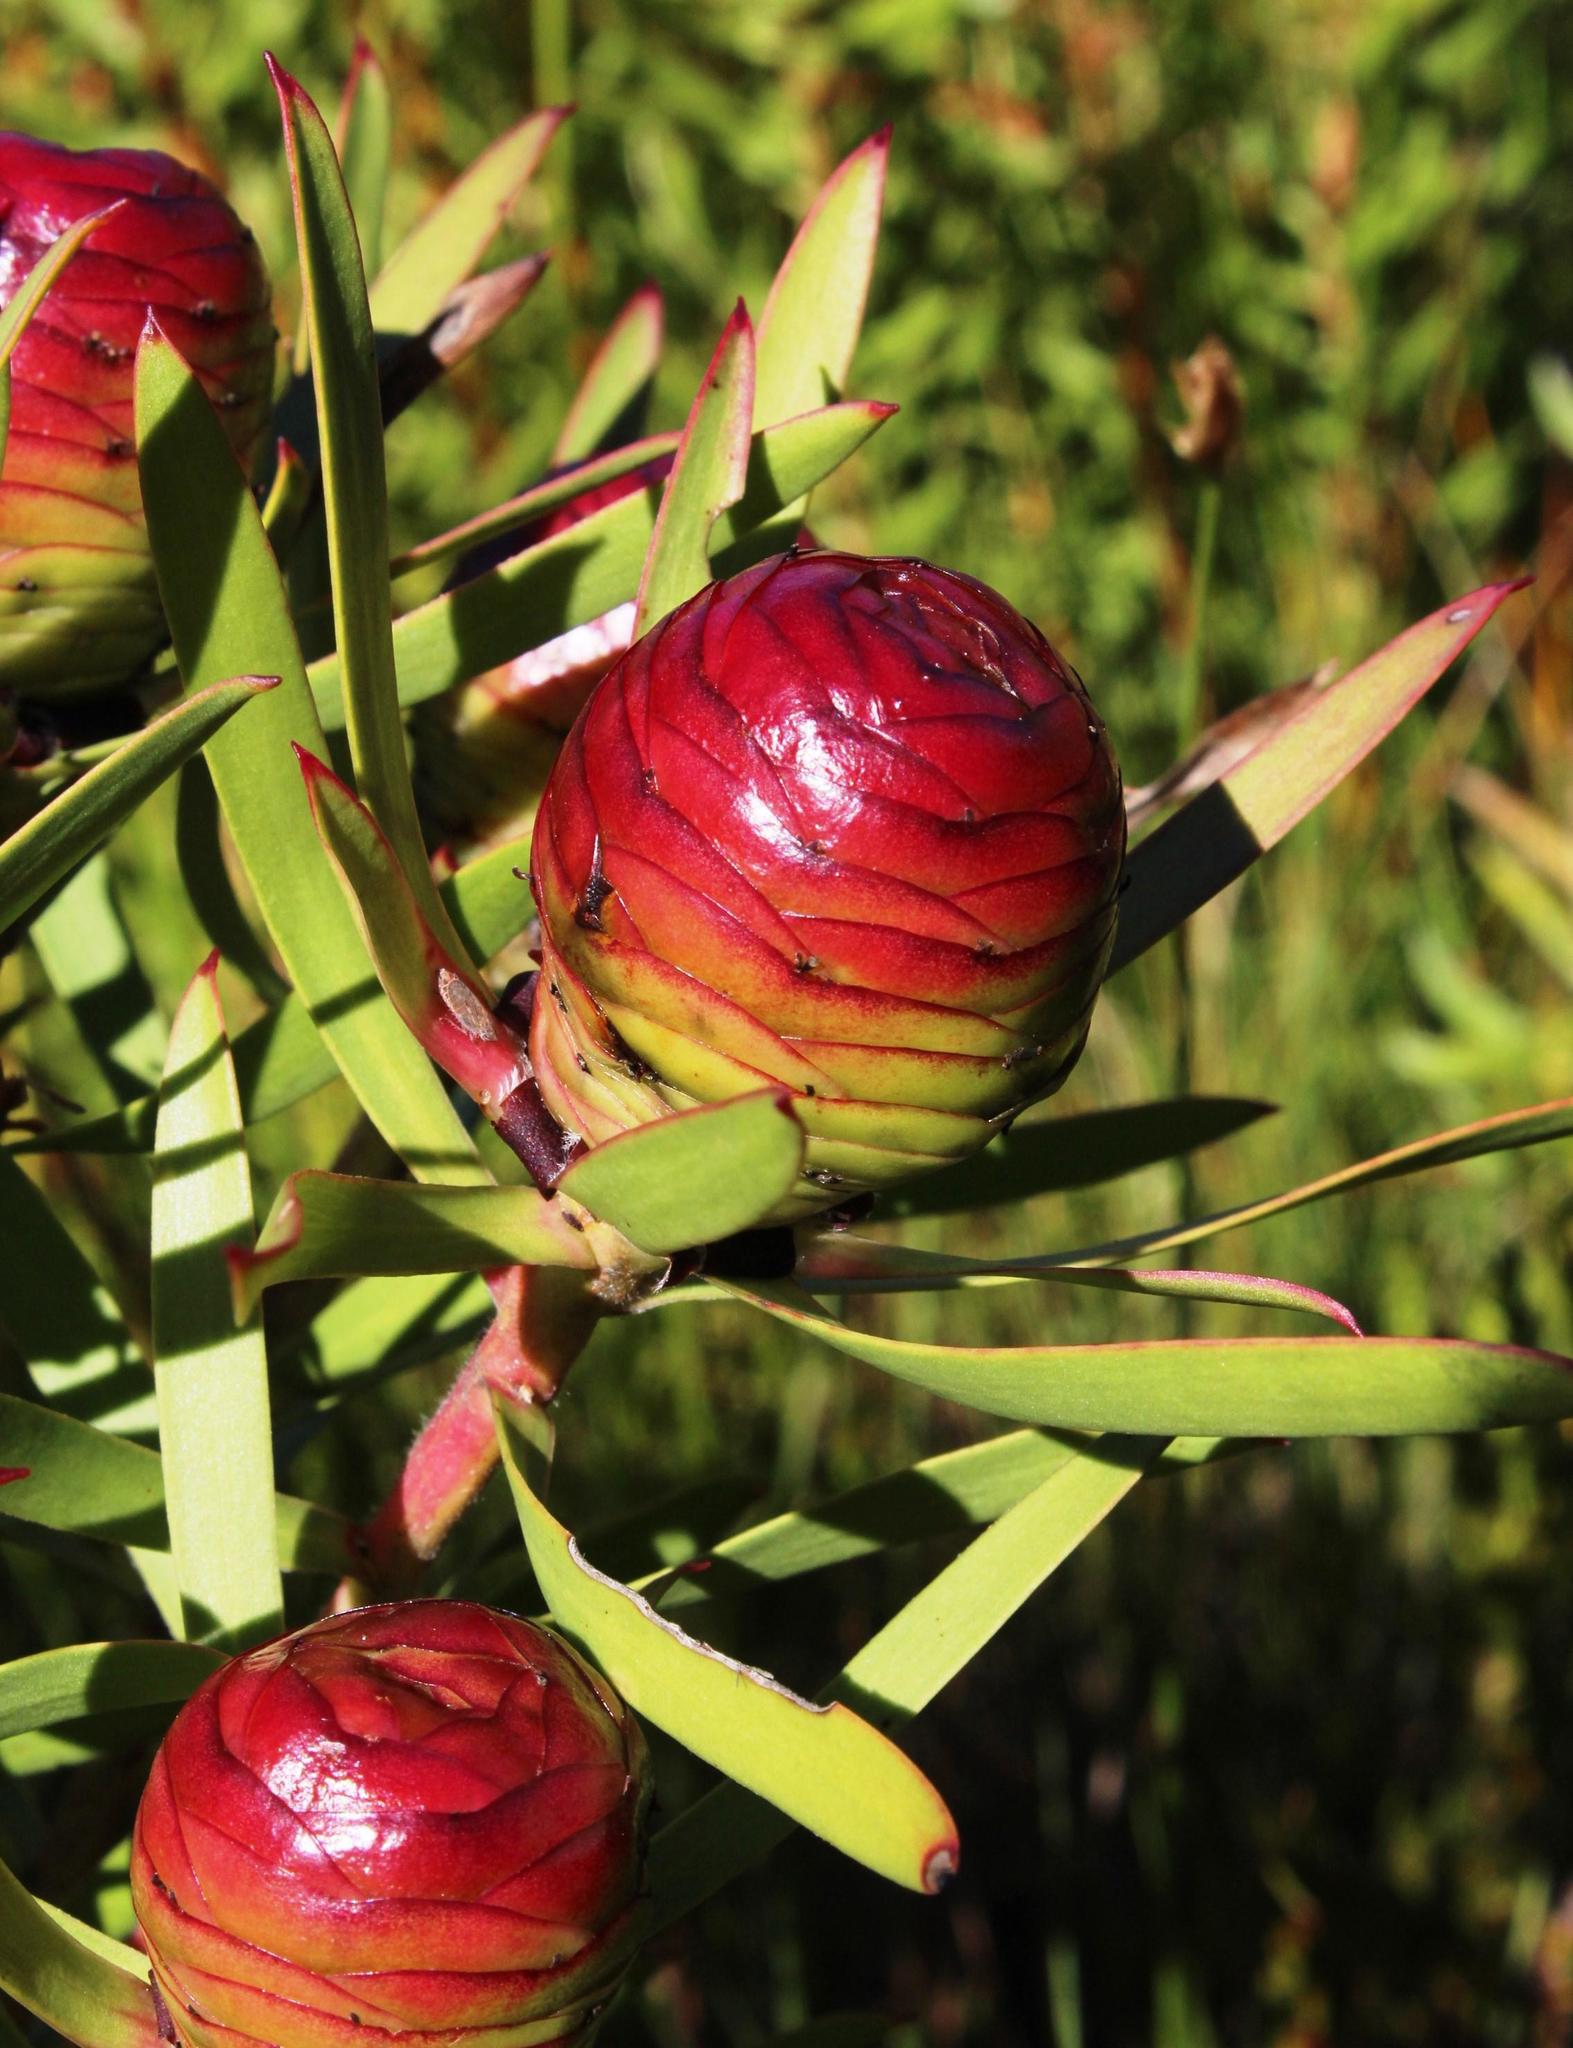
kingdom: Plantae
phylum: Tracheophyta
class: Magnoliopsida
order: Proteales
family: Proteaceae
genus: Leucadendron
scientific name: Leucadendron spissifolium
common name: Spear-leaf conebush
